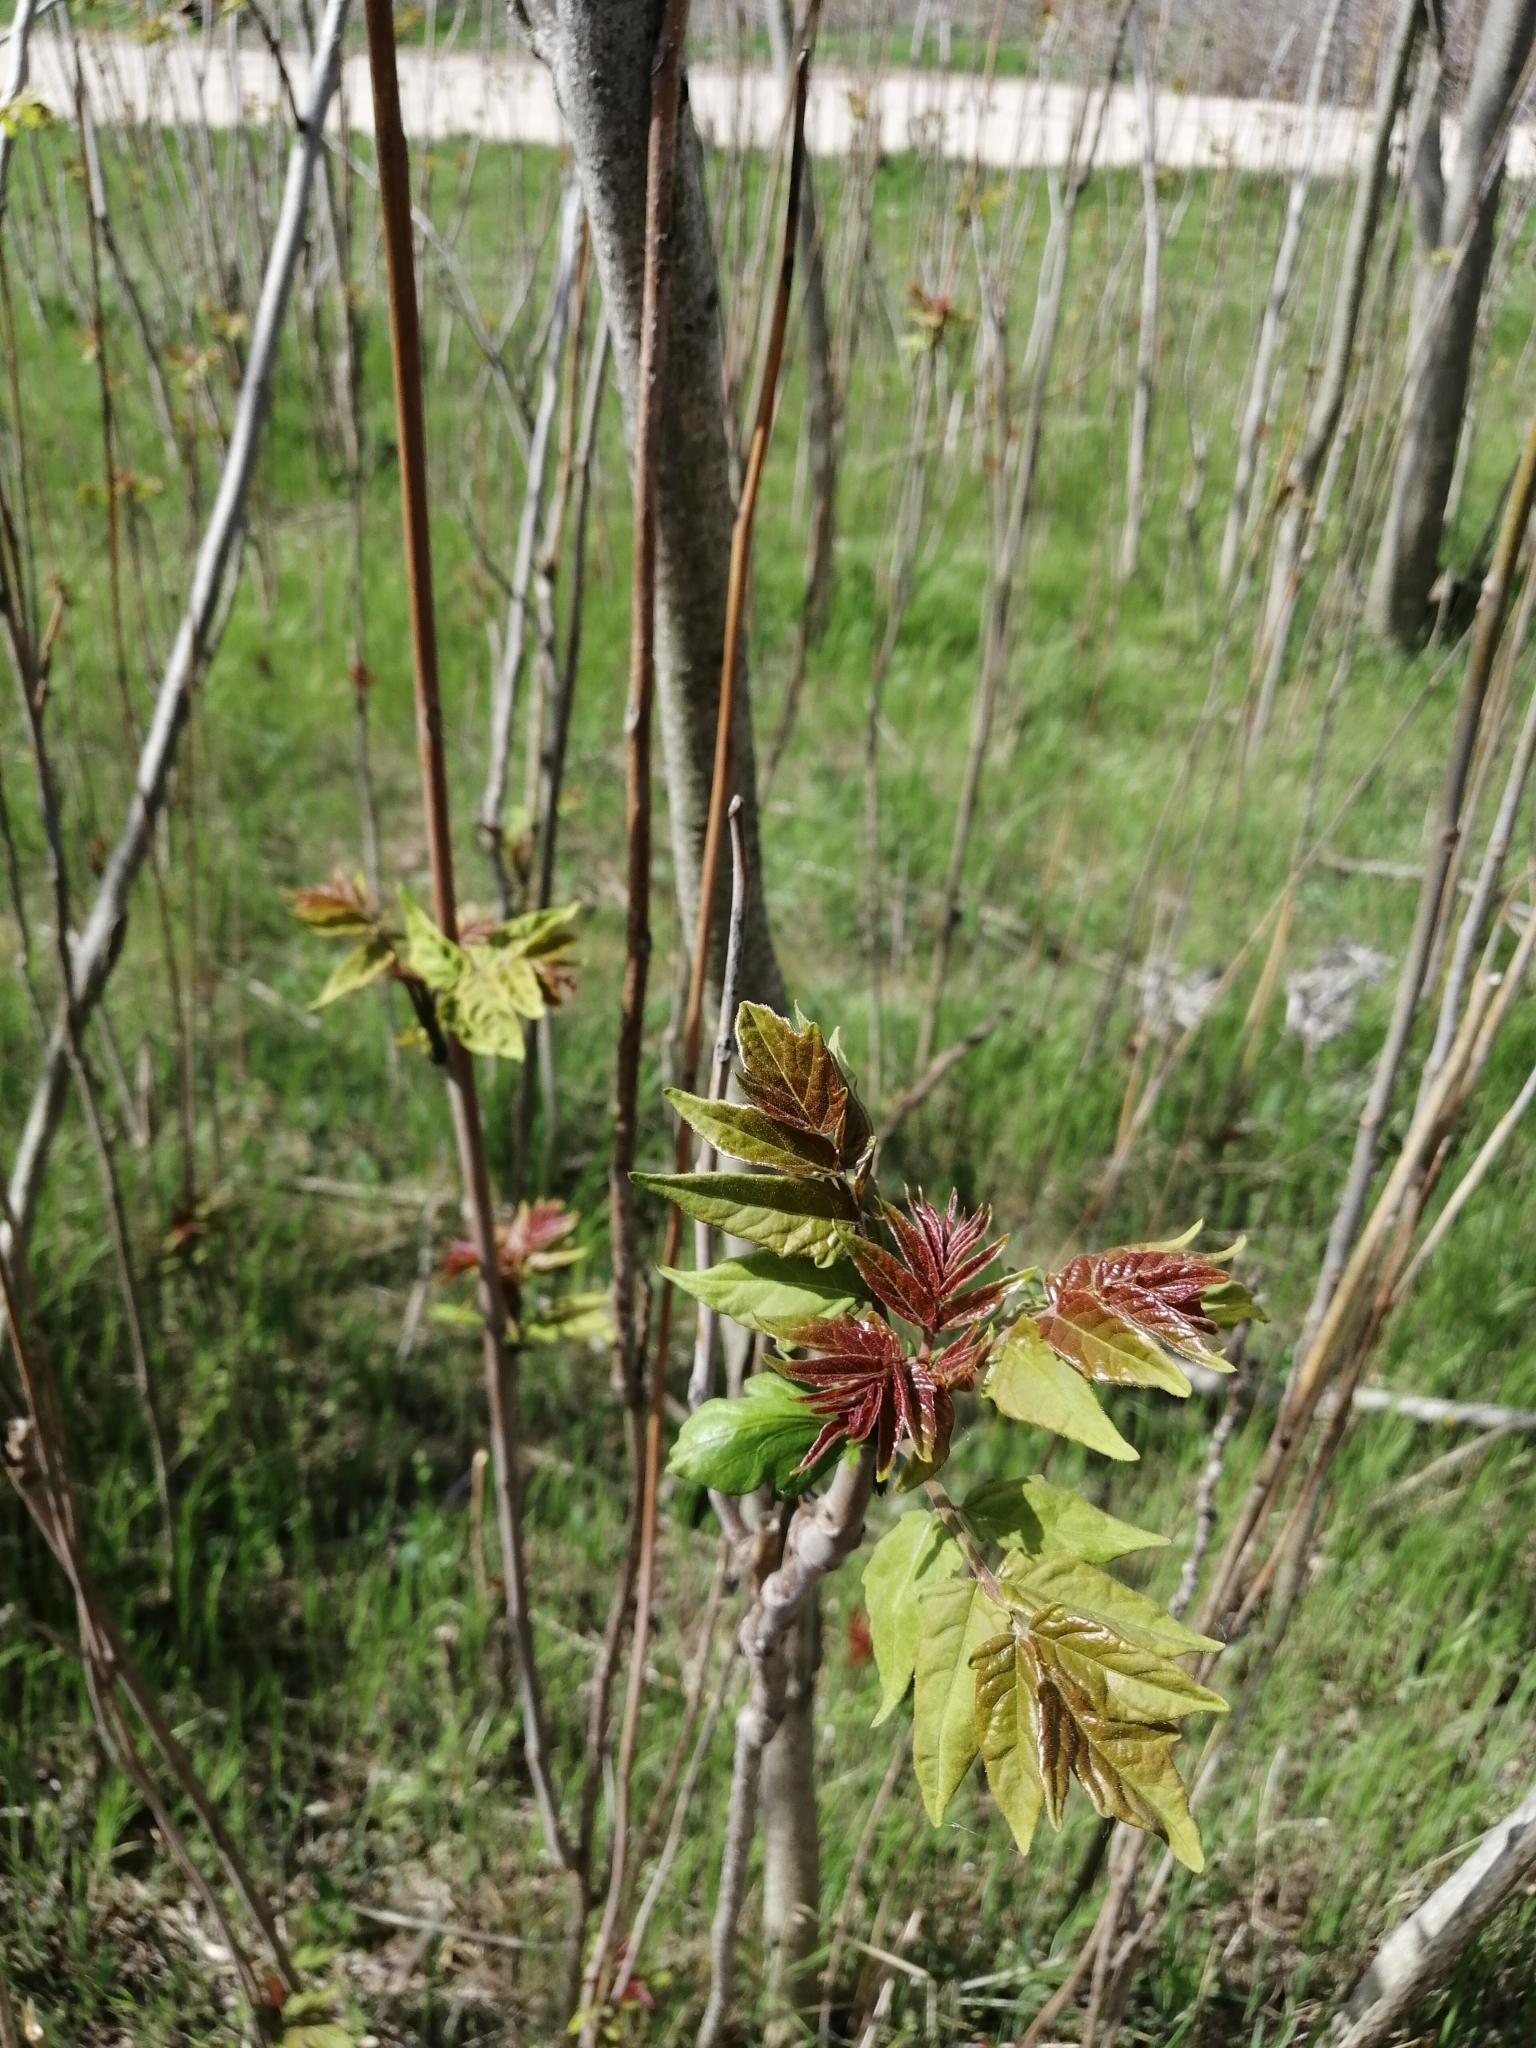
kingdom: Plantae
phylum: Tracheophyta
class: Magnoliopsida
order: Sapindales
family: Simaroubaceae
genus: Ailanthus
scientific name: Ailanthus altissima
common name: Tree-of-heaven
